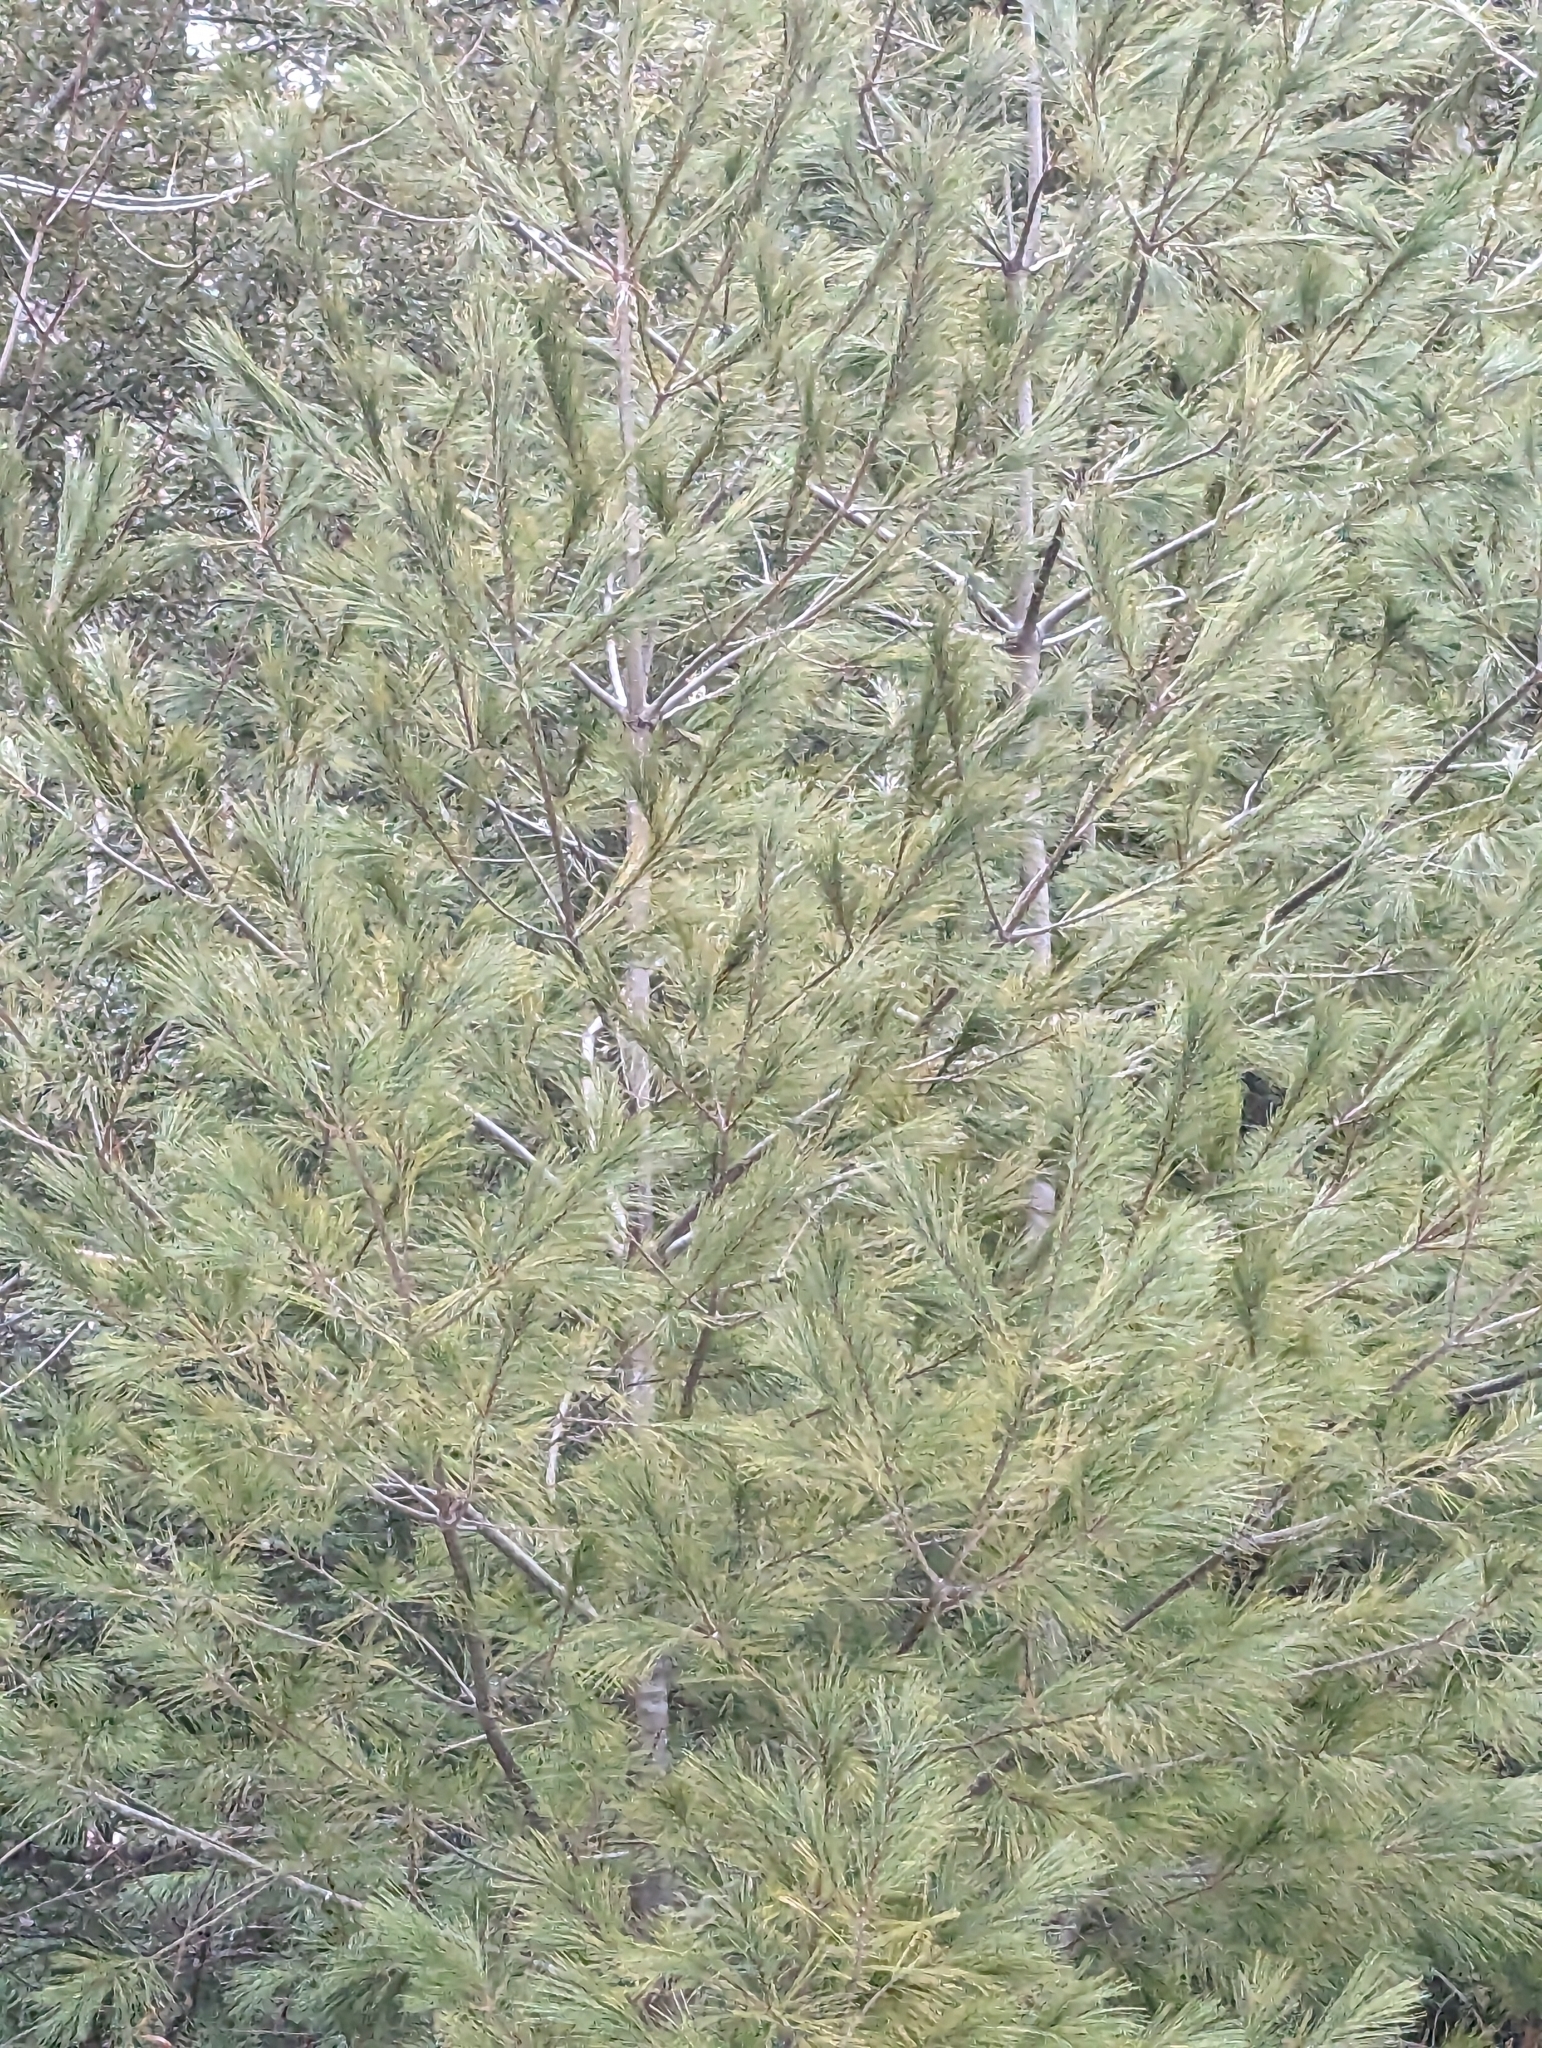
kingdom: Plantae
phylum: Tracheophyta
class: Pinopsida
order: Pinales
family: Pinaceae
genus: Pinus
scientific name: Pinus strobus
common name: Weymouth pine
